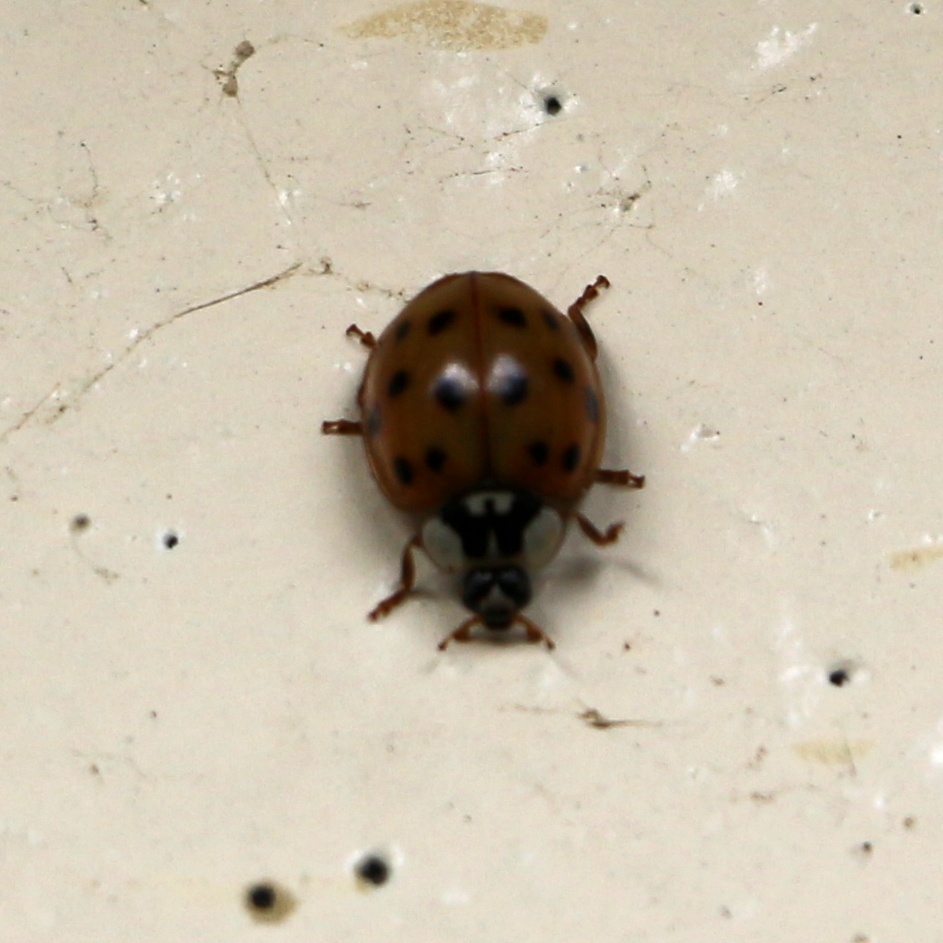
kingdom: Animalia
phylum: Arthropoda
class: Insecta
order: Coleoptera
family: Coccinellidae
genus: Harmonia
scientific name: Harmonia axyridis
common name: Harlequin ladybird
